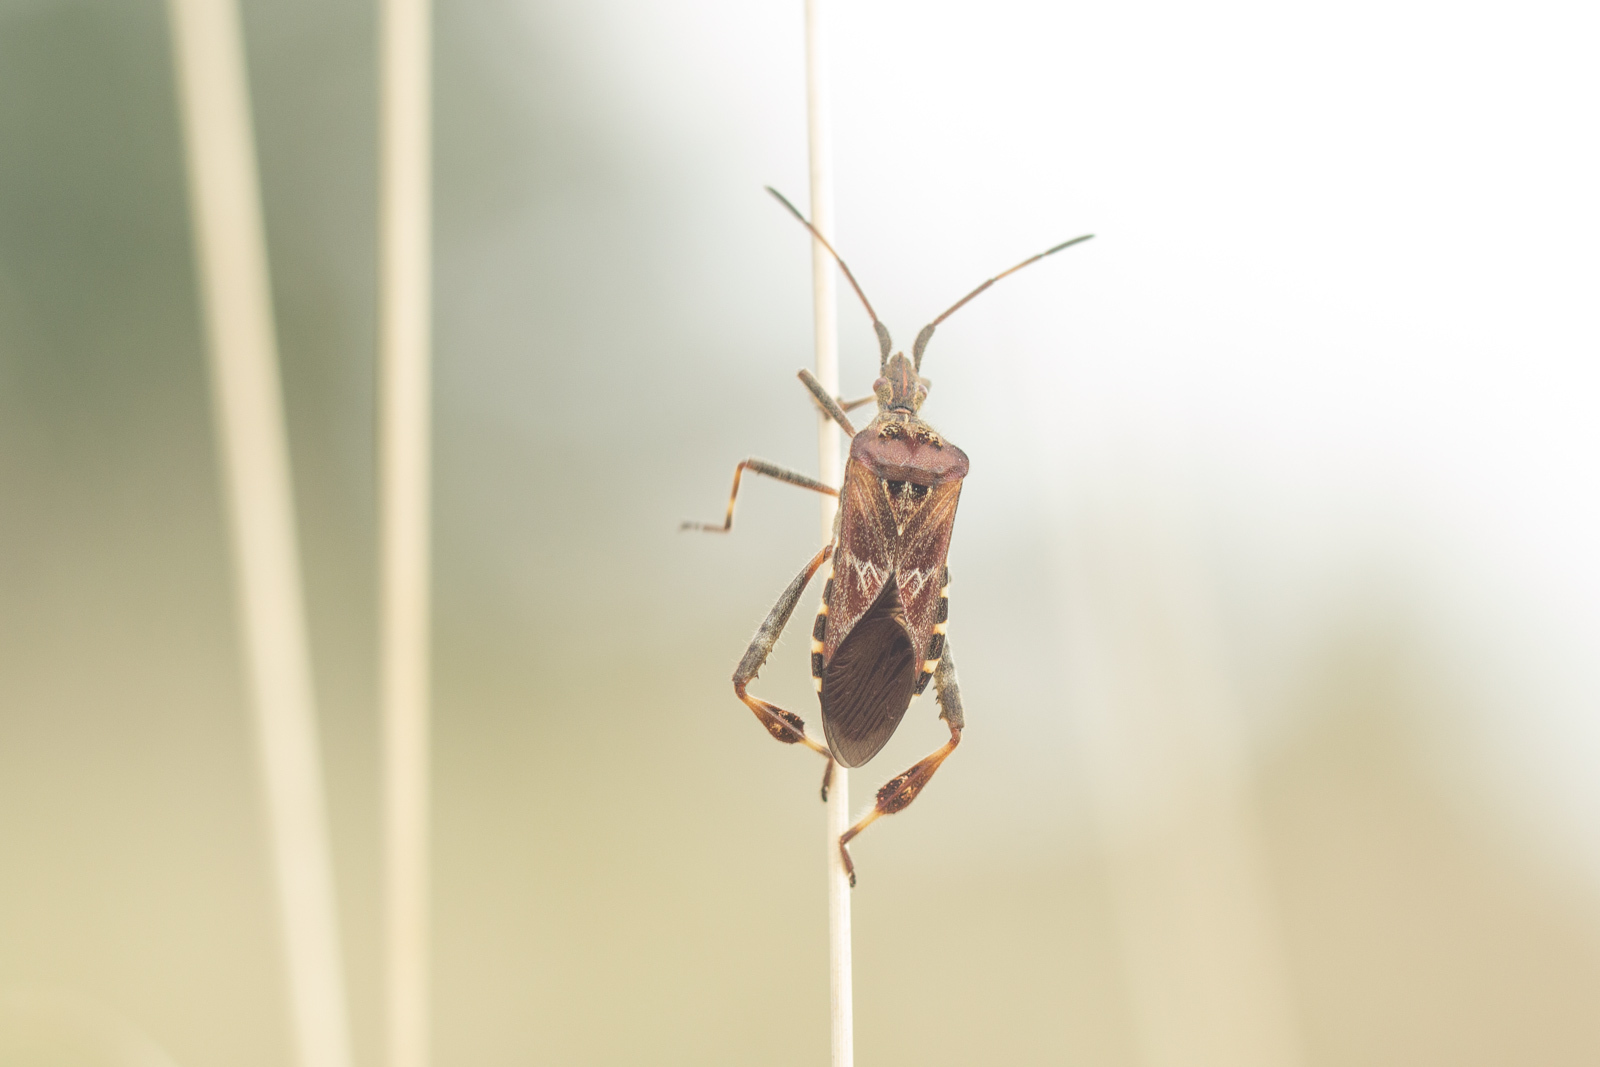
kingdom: Animalia
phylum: Arthropoda
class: Insecta
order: Hemiptera
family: Coreidae
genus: Leptoglossus
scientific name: Leptoglossus occidentalis
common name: Western conifer-seed bug
